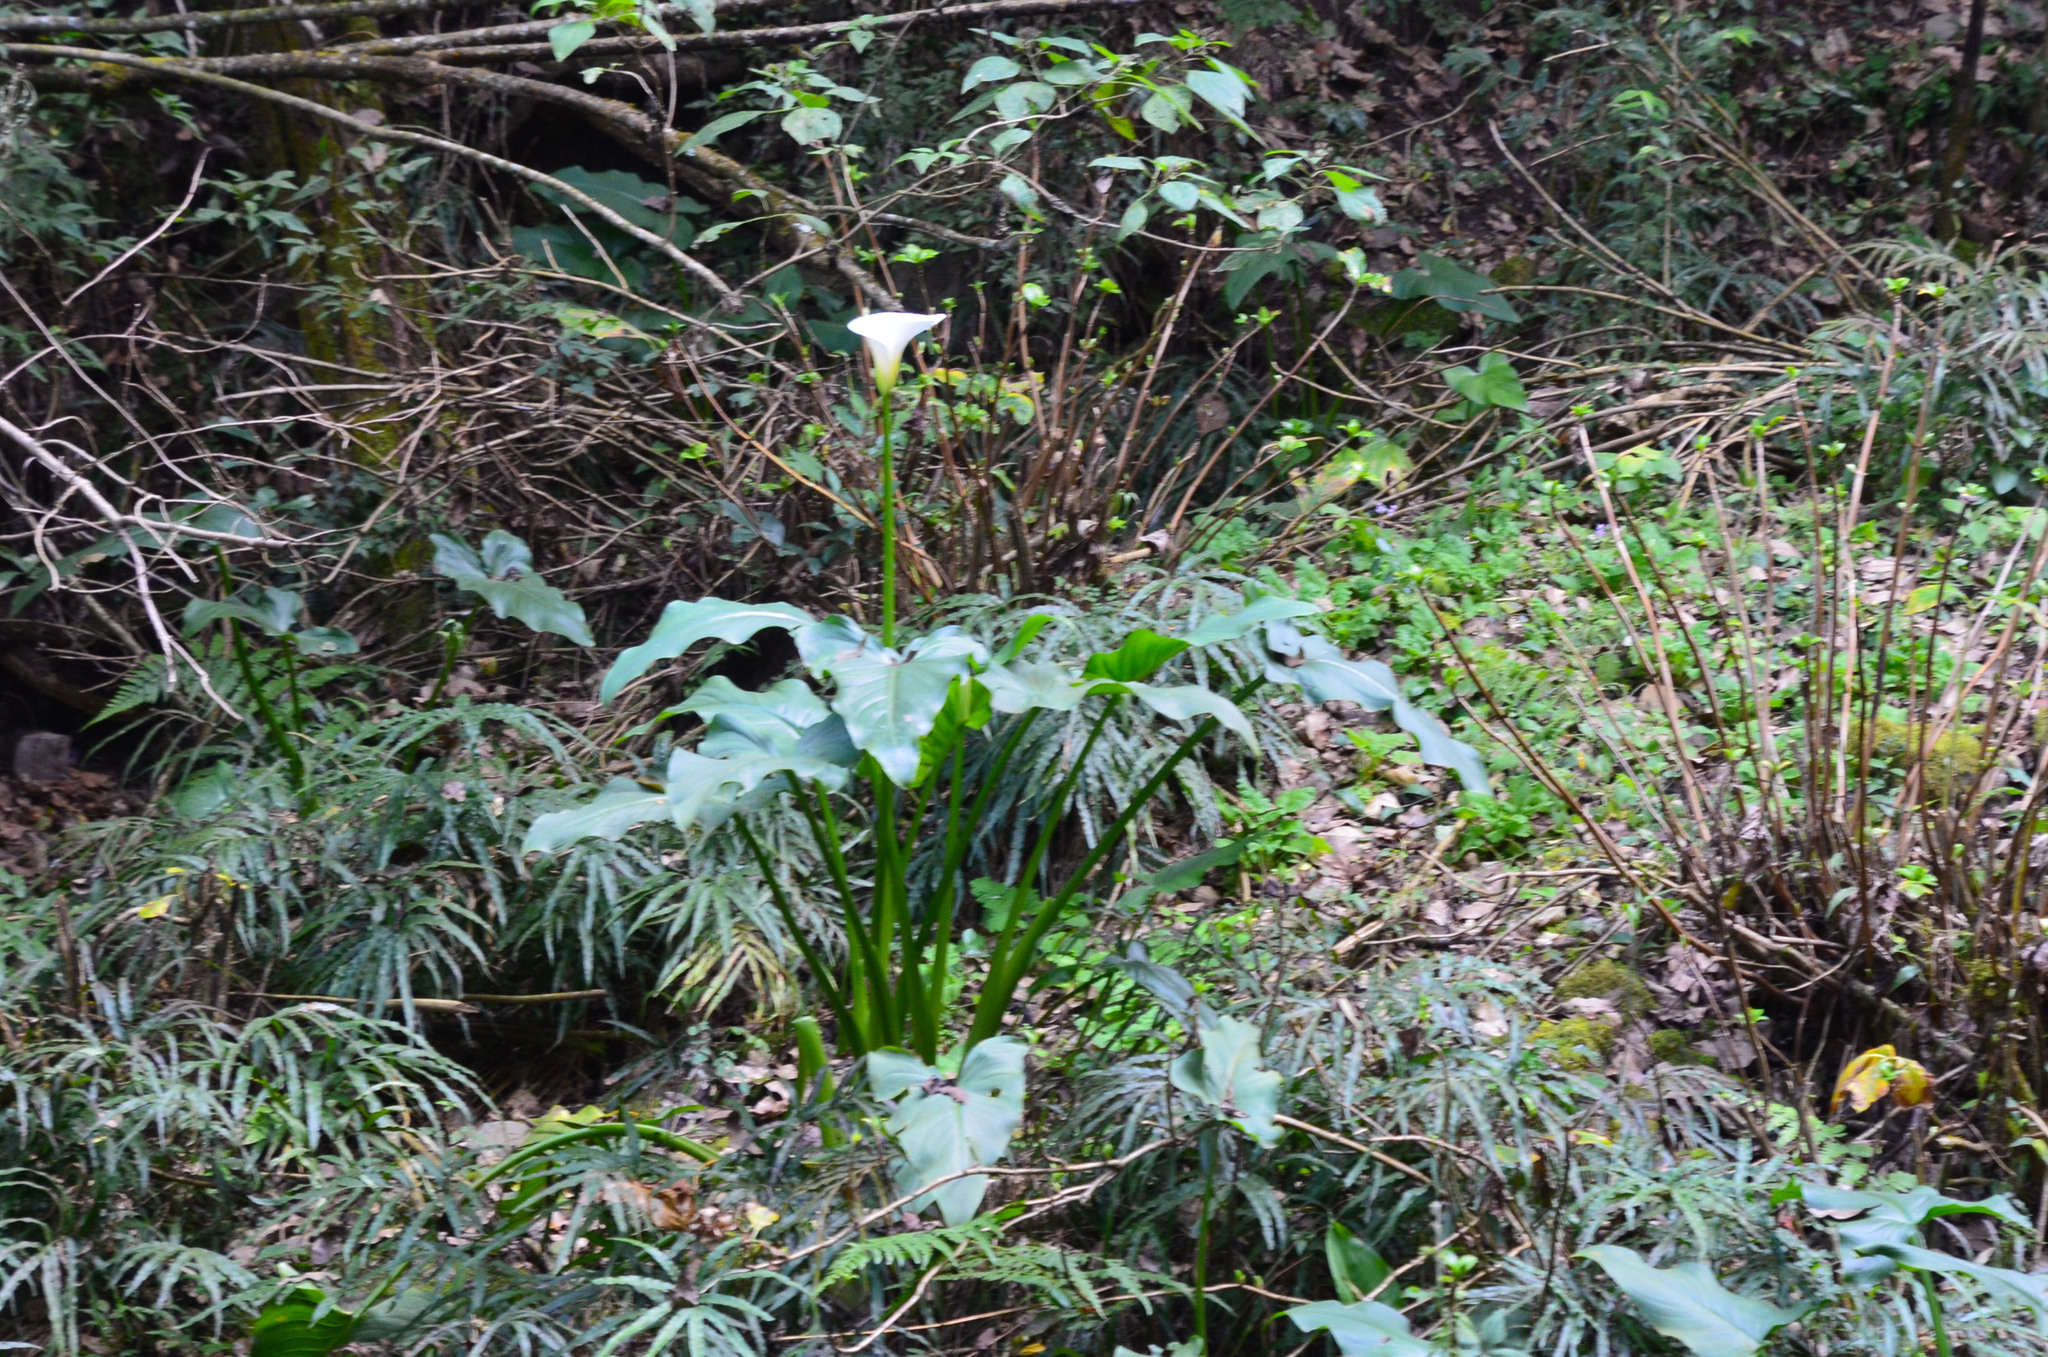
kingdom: Plantae
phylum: Tracheophyta
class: Liliopsida
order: Alismatales
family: Araceae
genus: Zantedeschia
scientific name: Zantedeschia aethiopica
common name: Altar-lily
